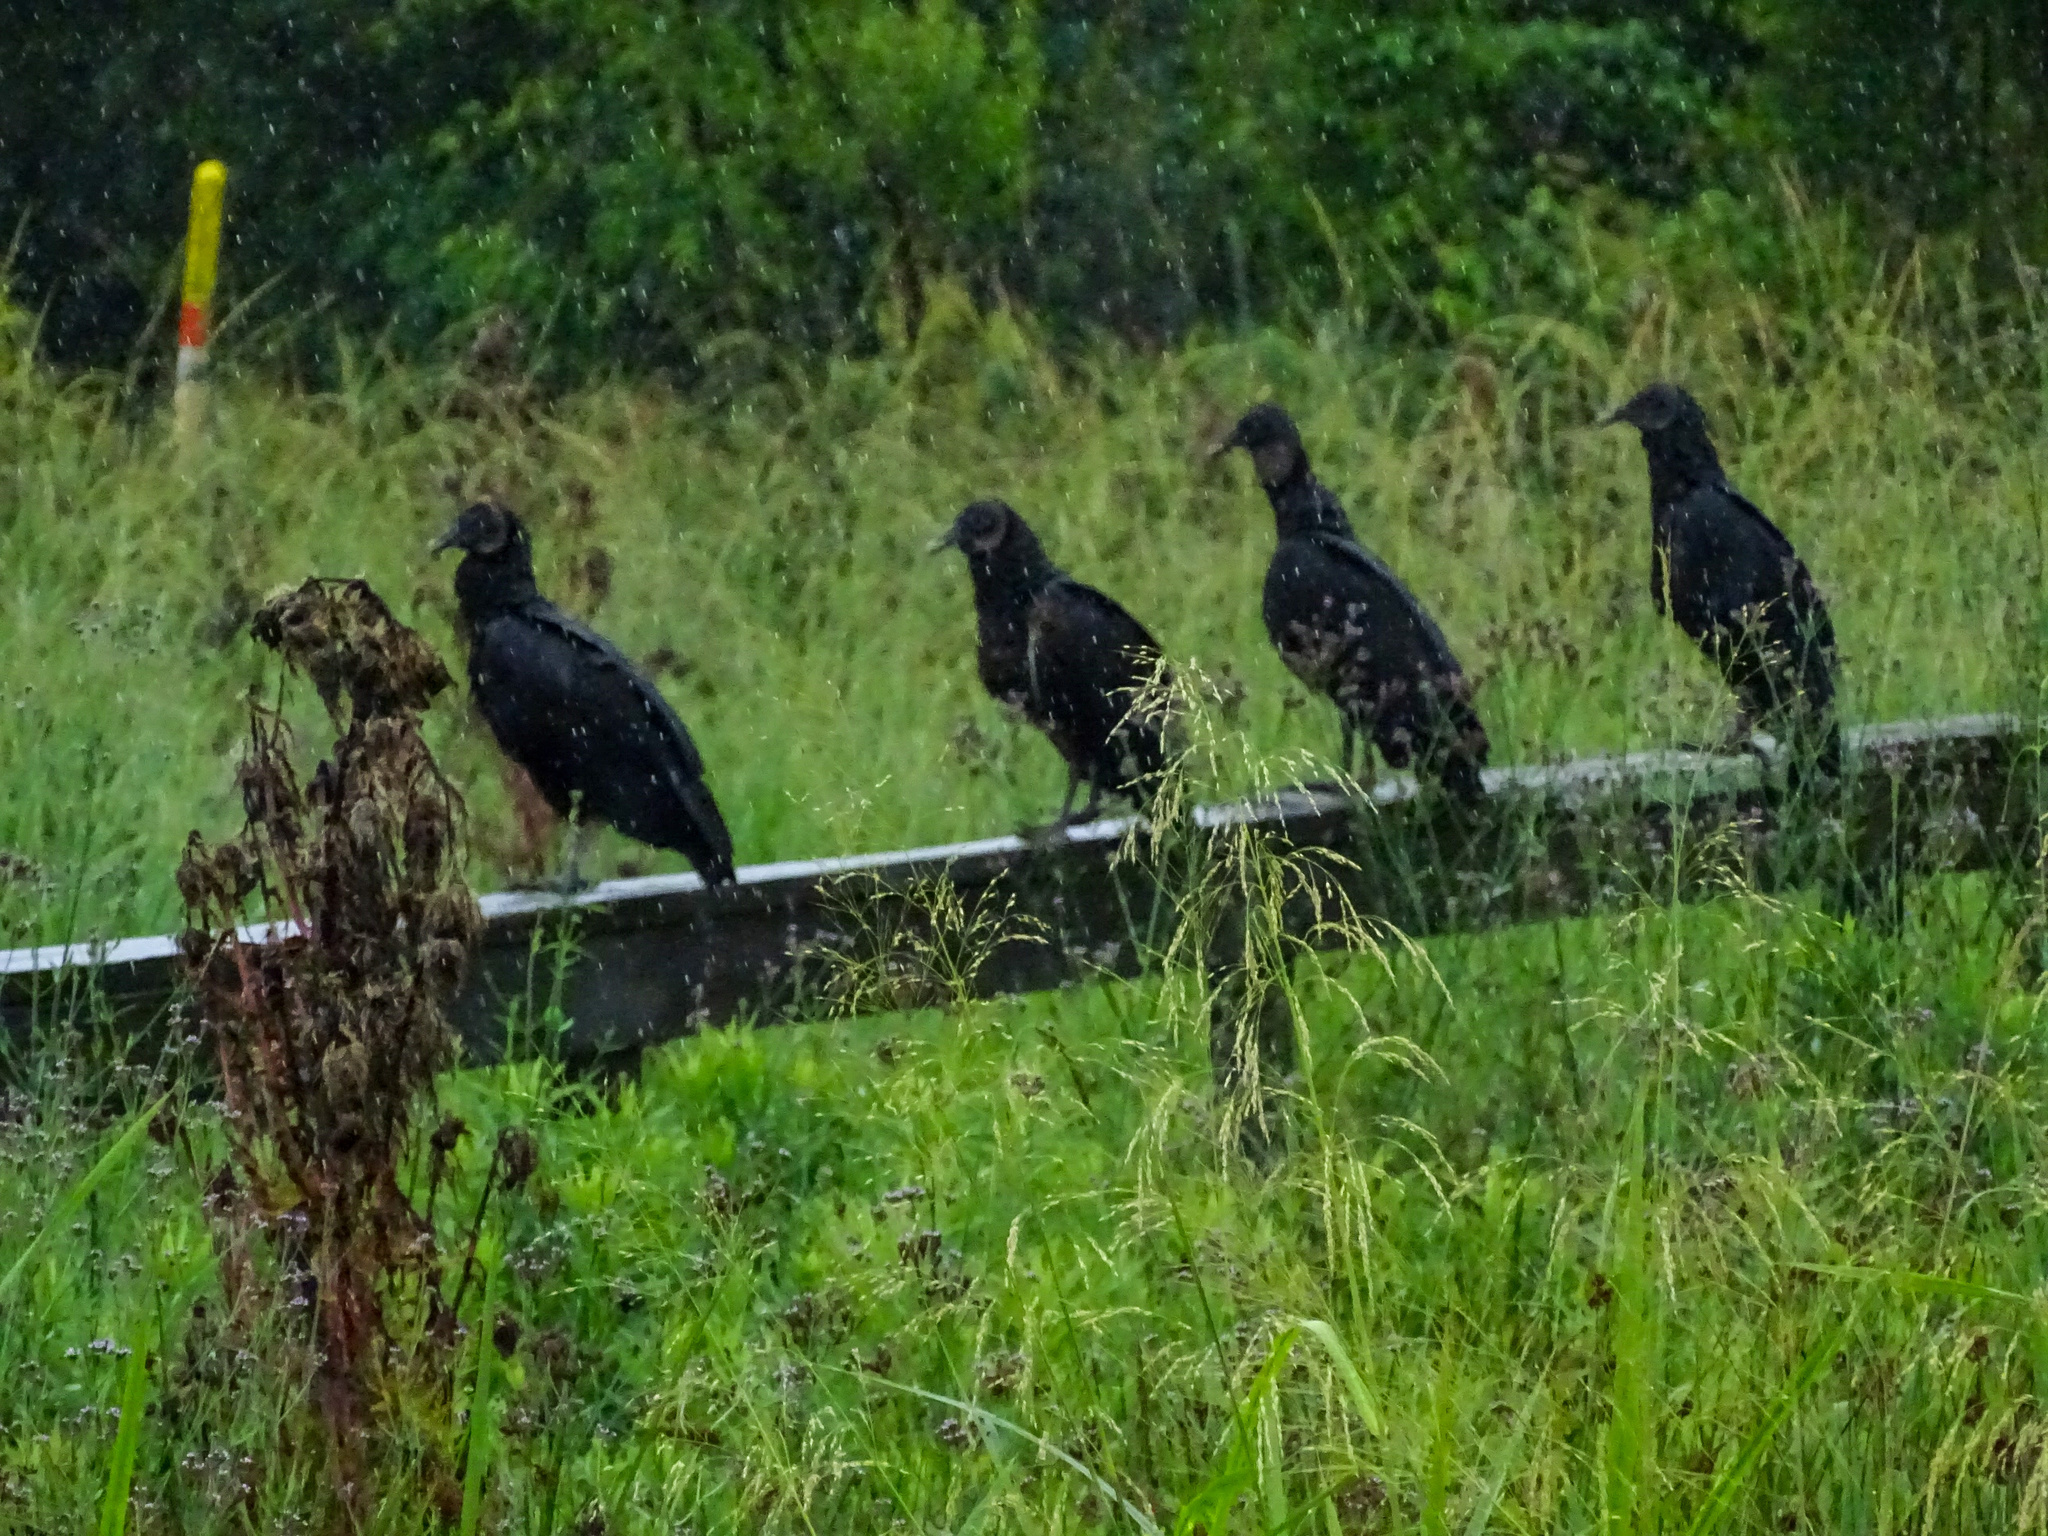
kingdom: Animalia
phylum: Chordata
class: Aves
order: Accipitriformes
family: Cathartidae
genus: Coragyps
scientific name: Coragyps atratus
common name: Black vulture
